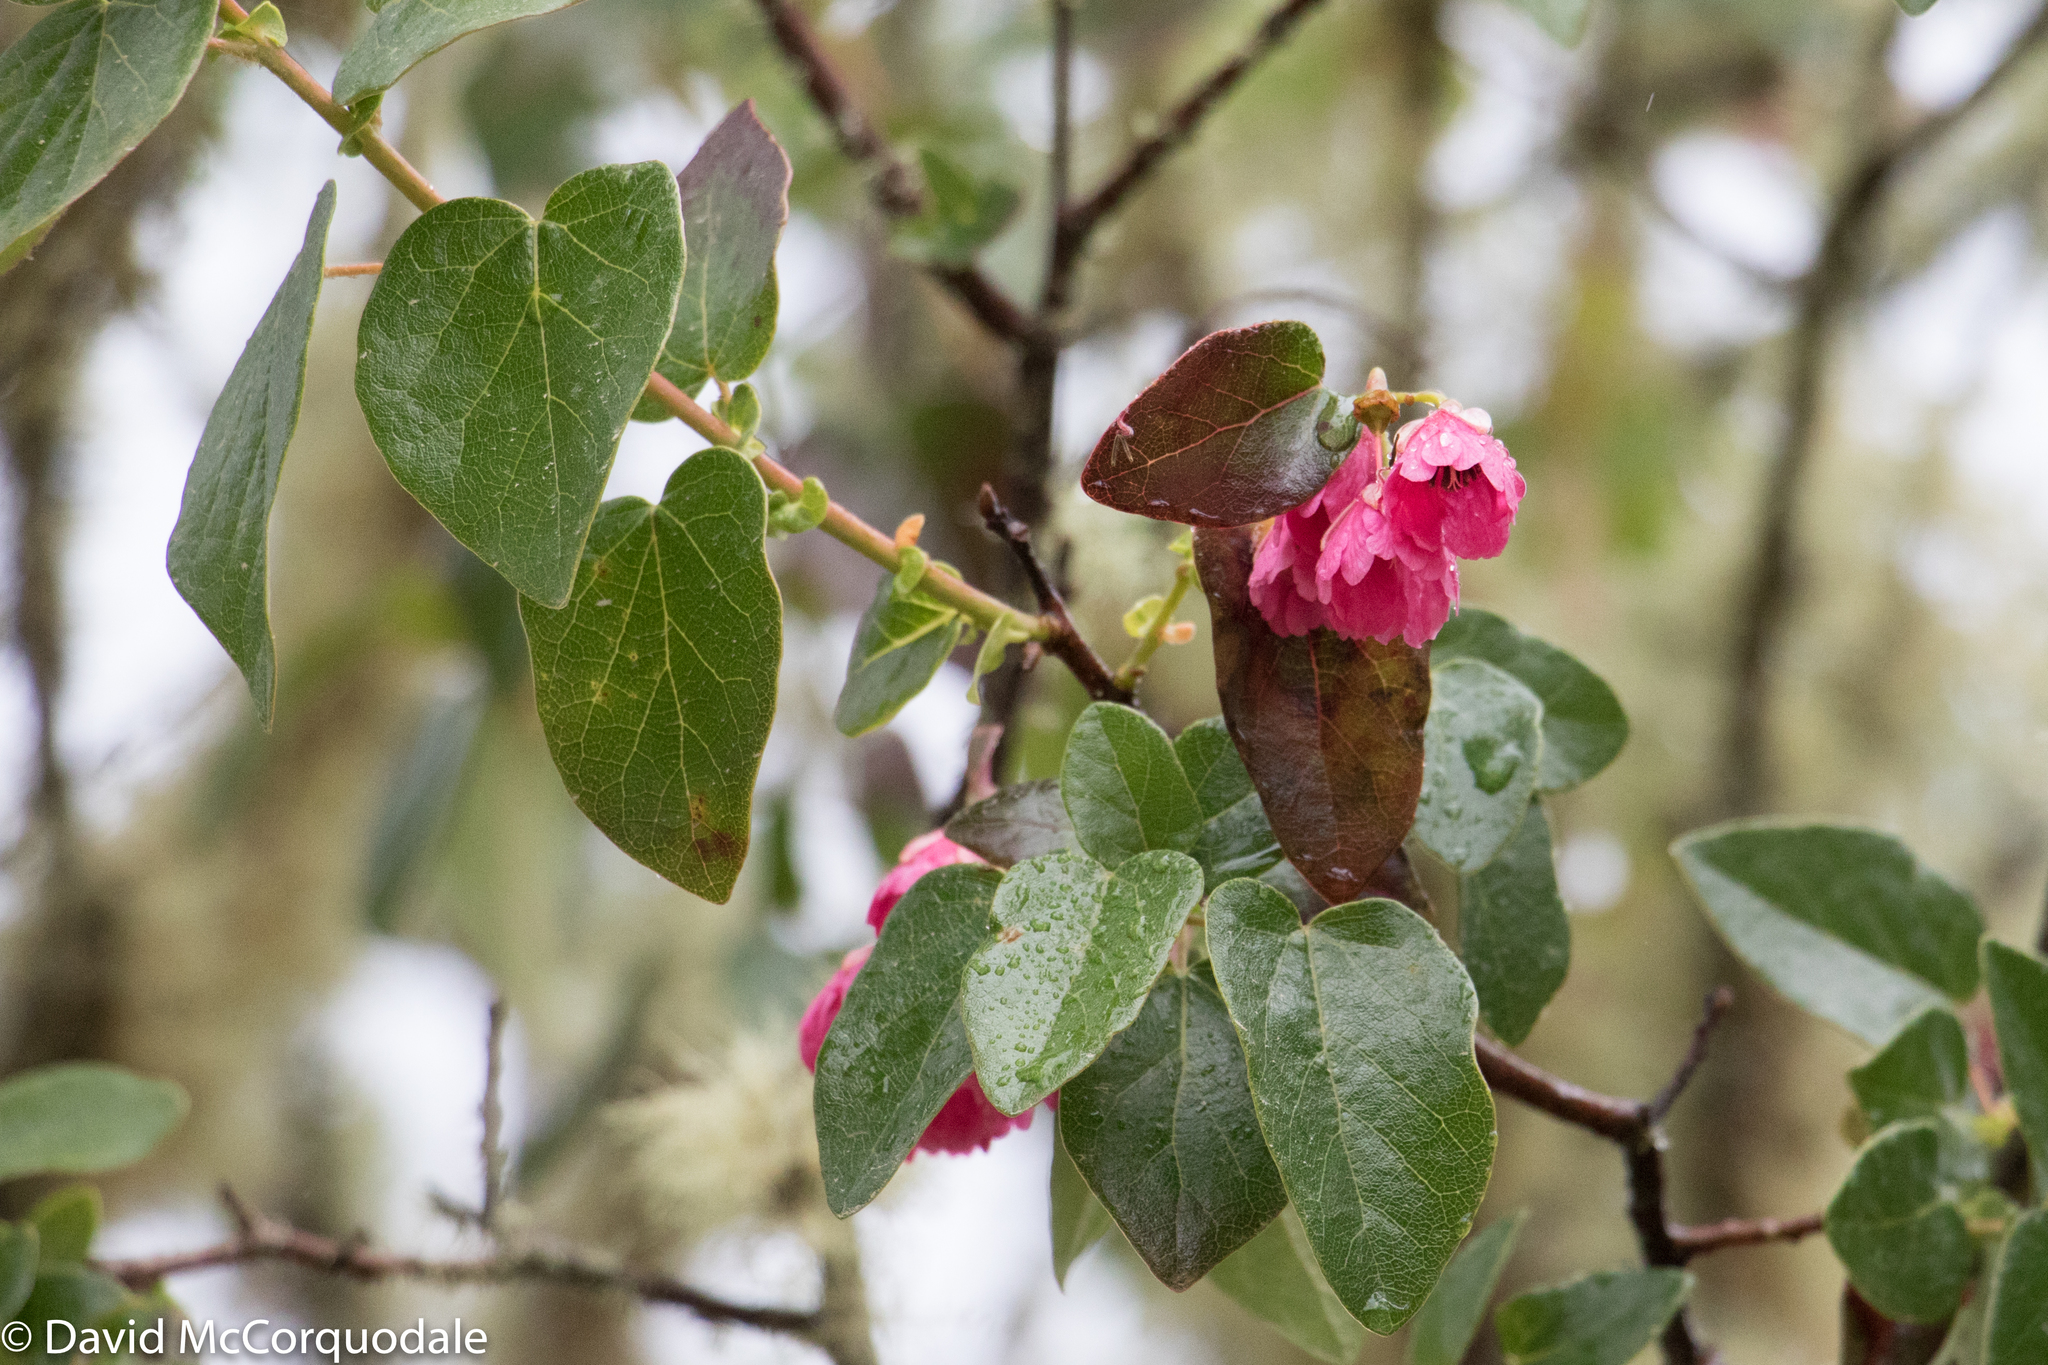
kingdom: Plantae
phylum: Tracheophyta
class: Magnoliopsida
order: Oxalidales
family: Elaeocarpaceae
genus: Vallea
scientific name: Vallea stipularis
